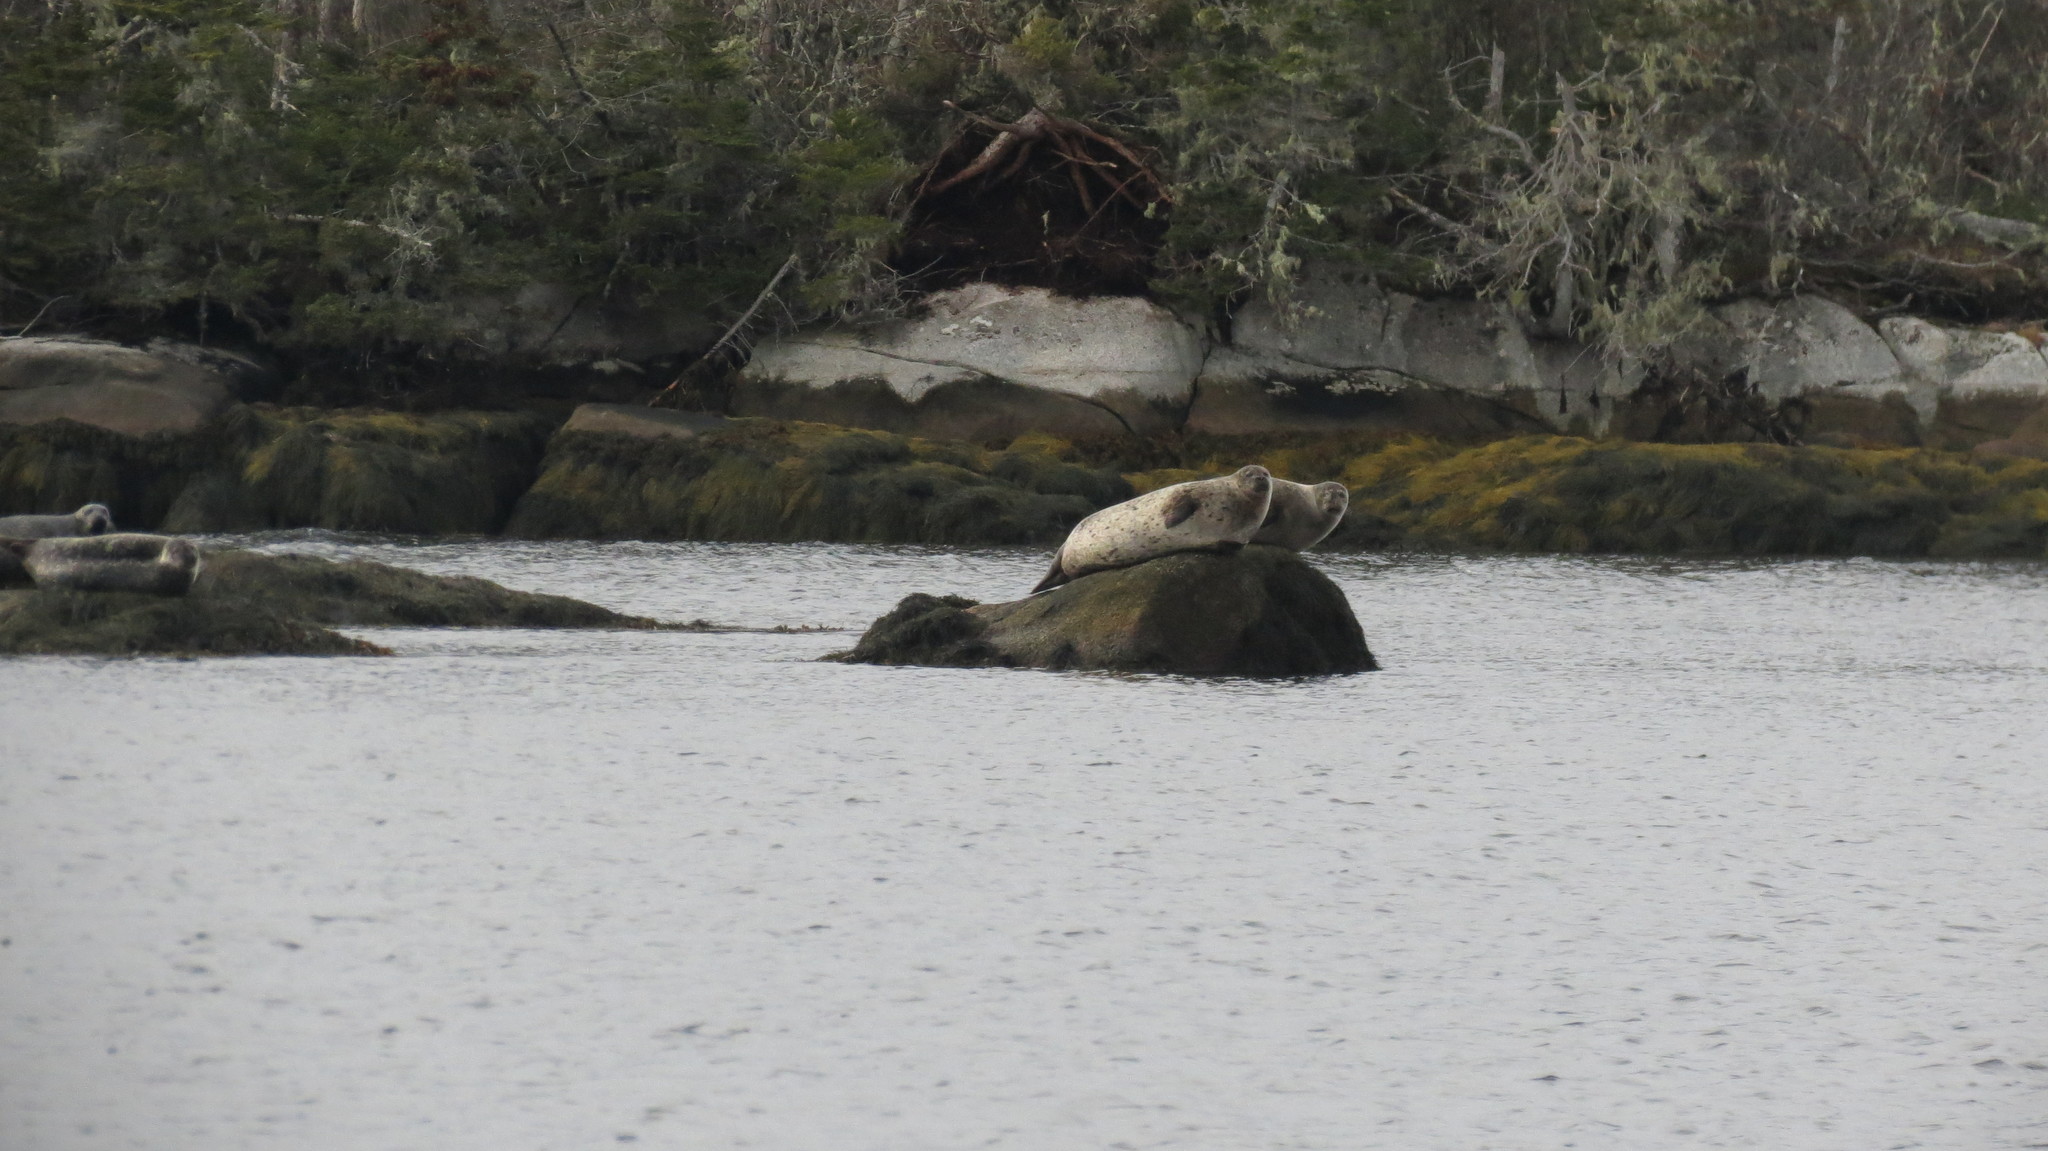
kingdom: Animalia
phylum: Chordata
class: Mammalia
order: Carnivora
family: Phocidae
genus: Phoca
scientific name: Phoca vitulina
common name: Harbor seal
